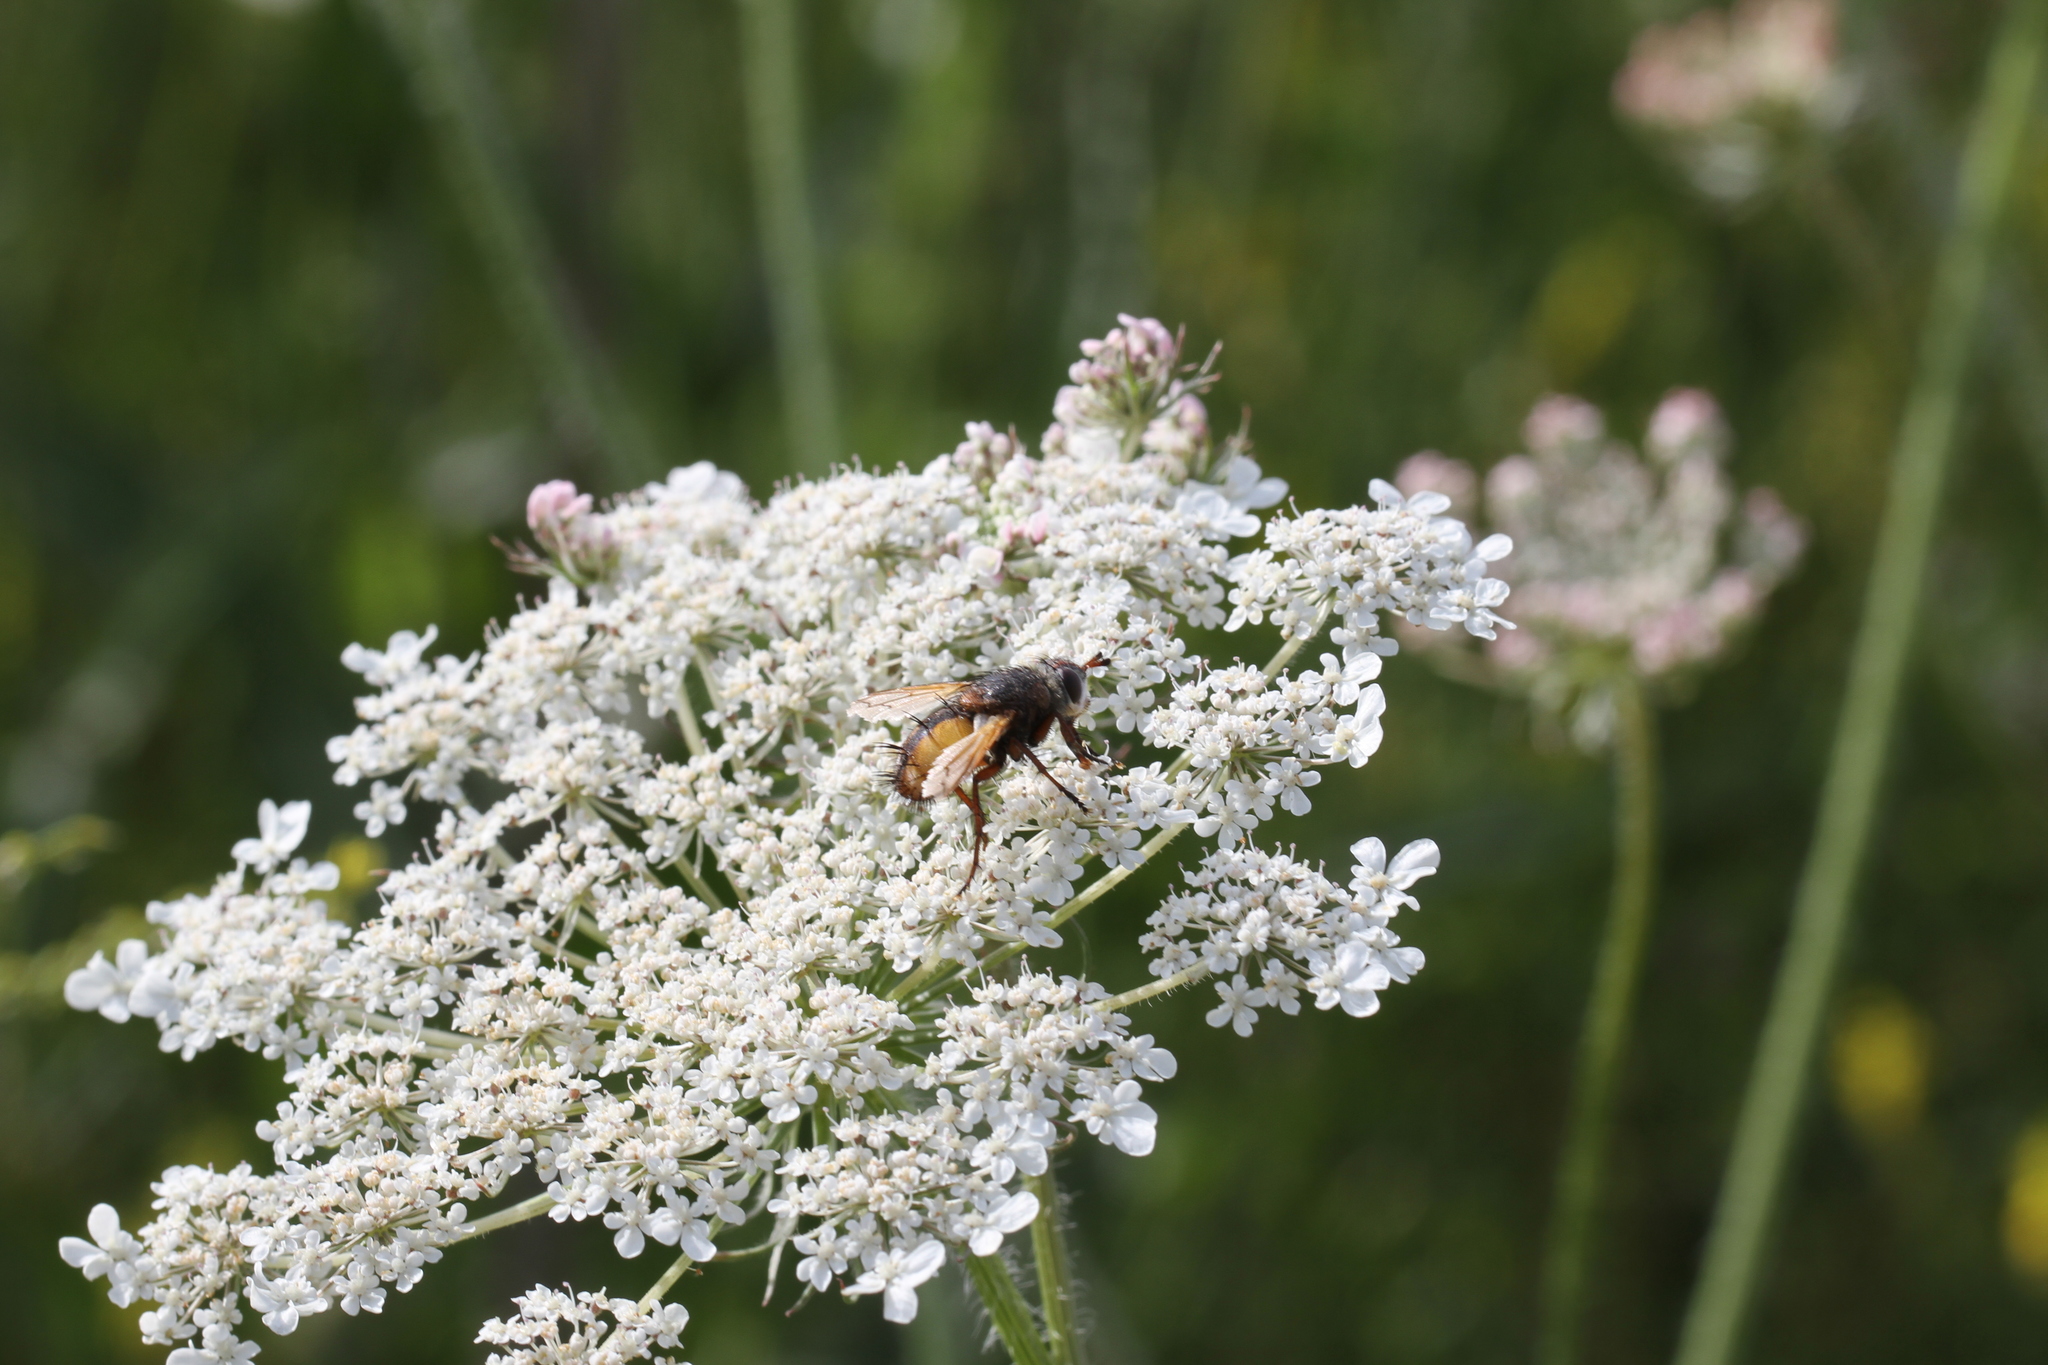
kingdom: Animalia
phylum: Arthropoda
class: Insecta
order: Diptera
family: Tachinidae
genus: Tachina
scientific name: Tachina fera
